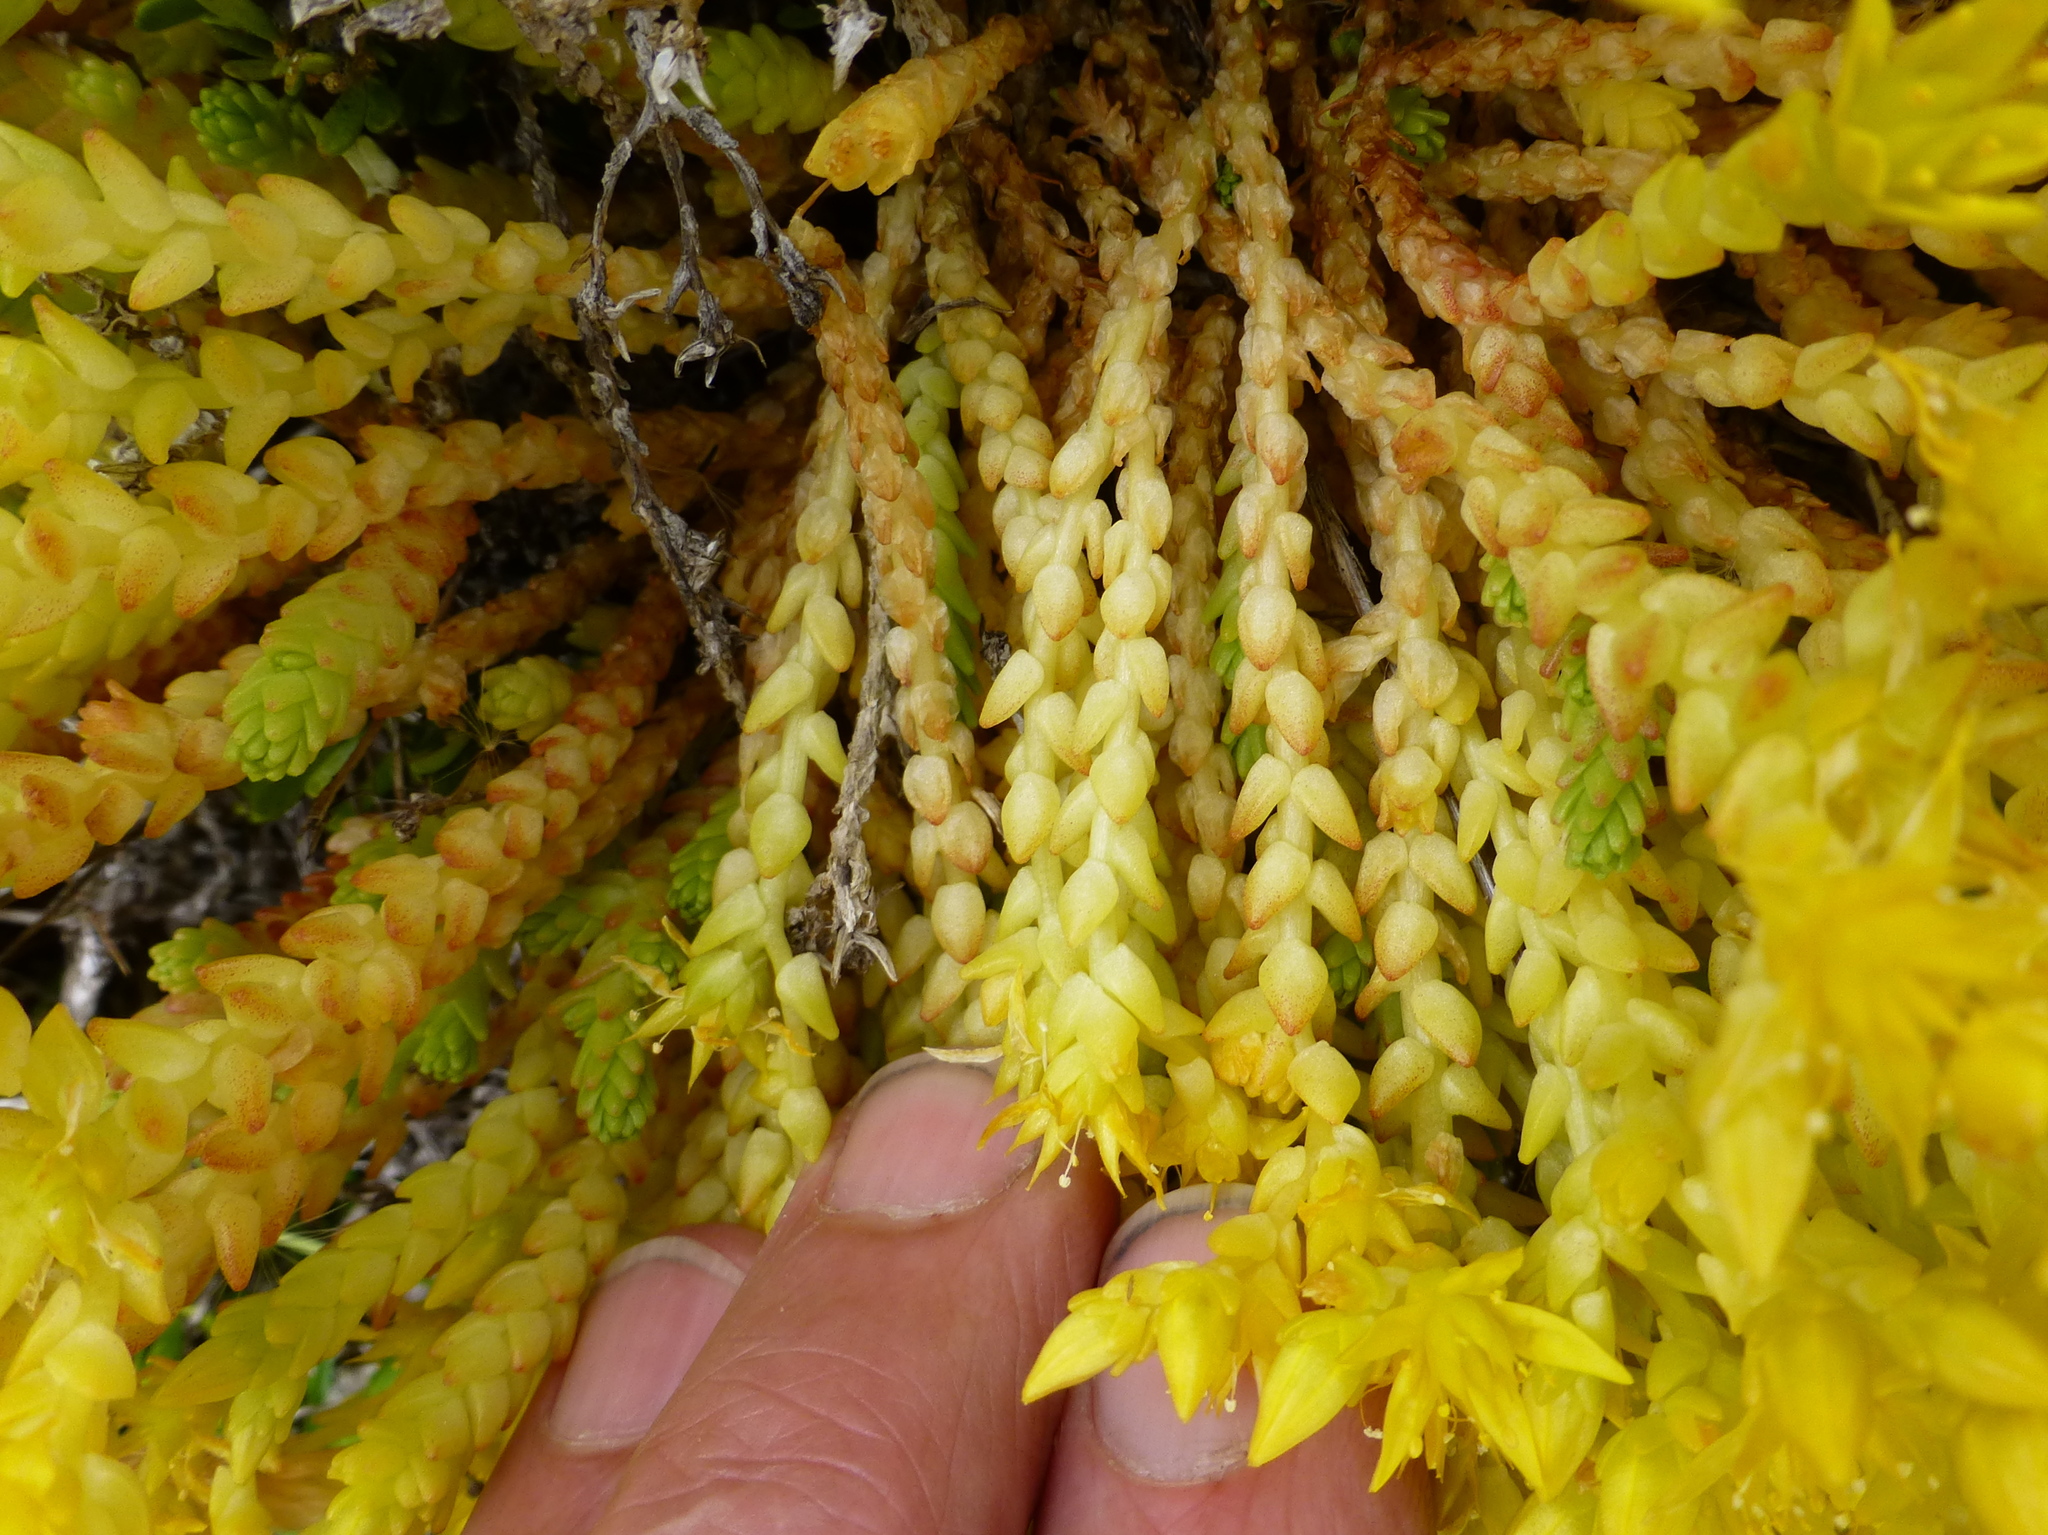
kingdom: Plantae
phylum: Tracheophyta
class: Magnoliopsida
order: Saxifragales
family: Crassulaceae
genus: Sedum
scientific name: Sedum acre
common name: Biting stonecrop
